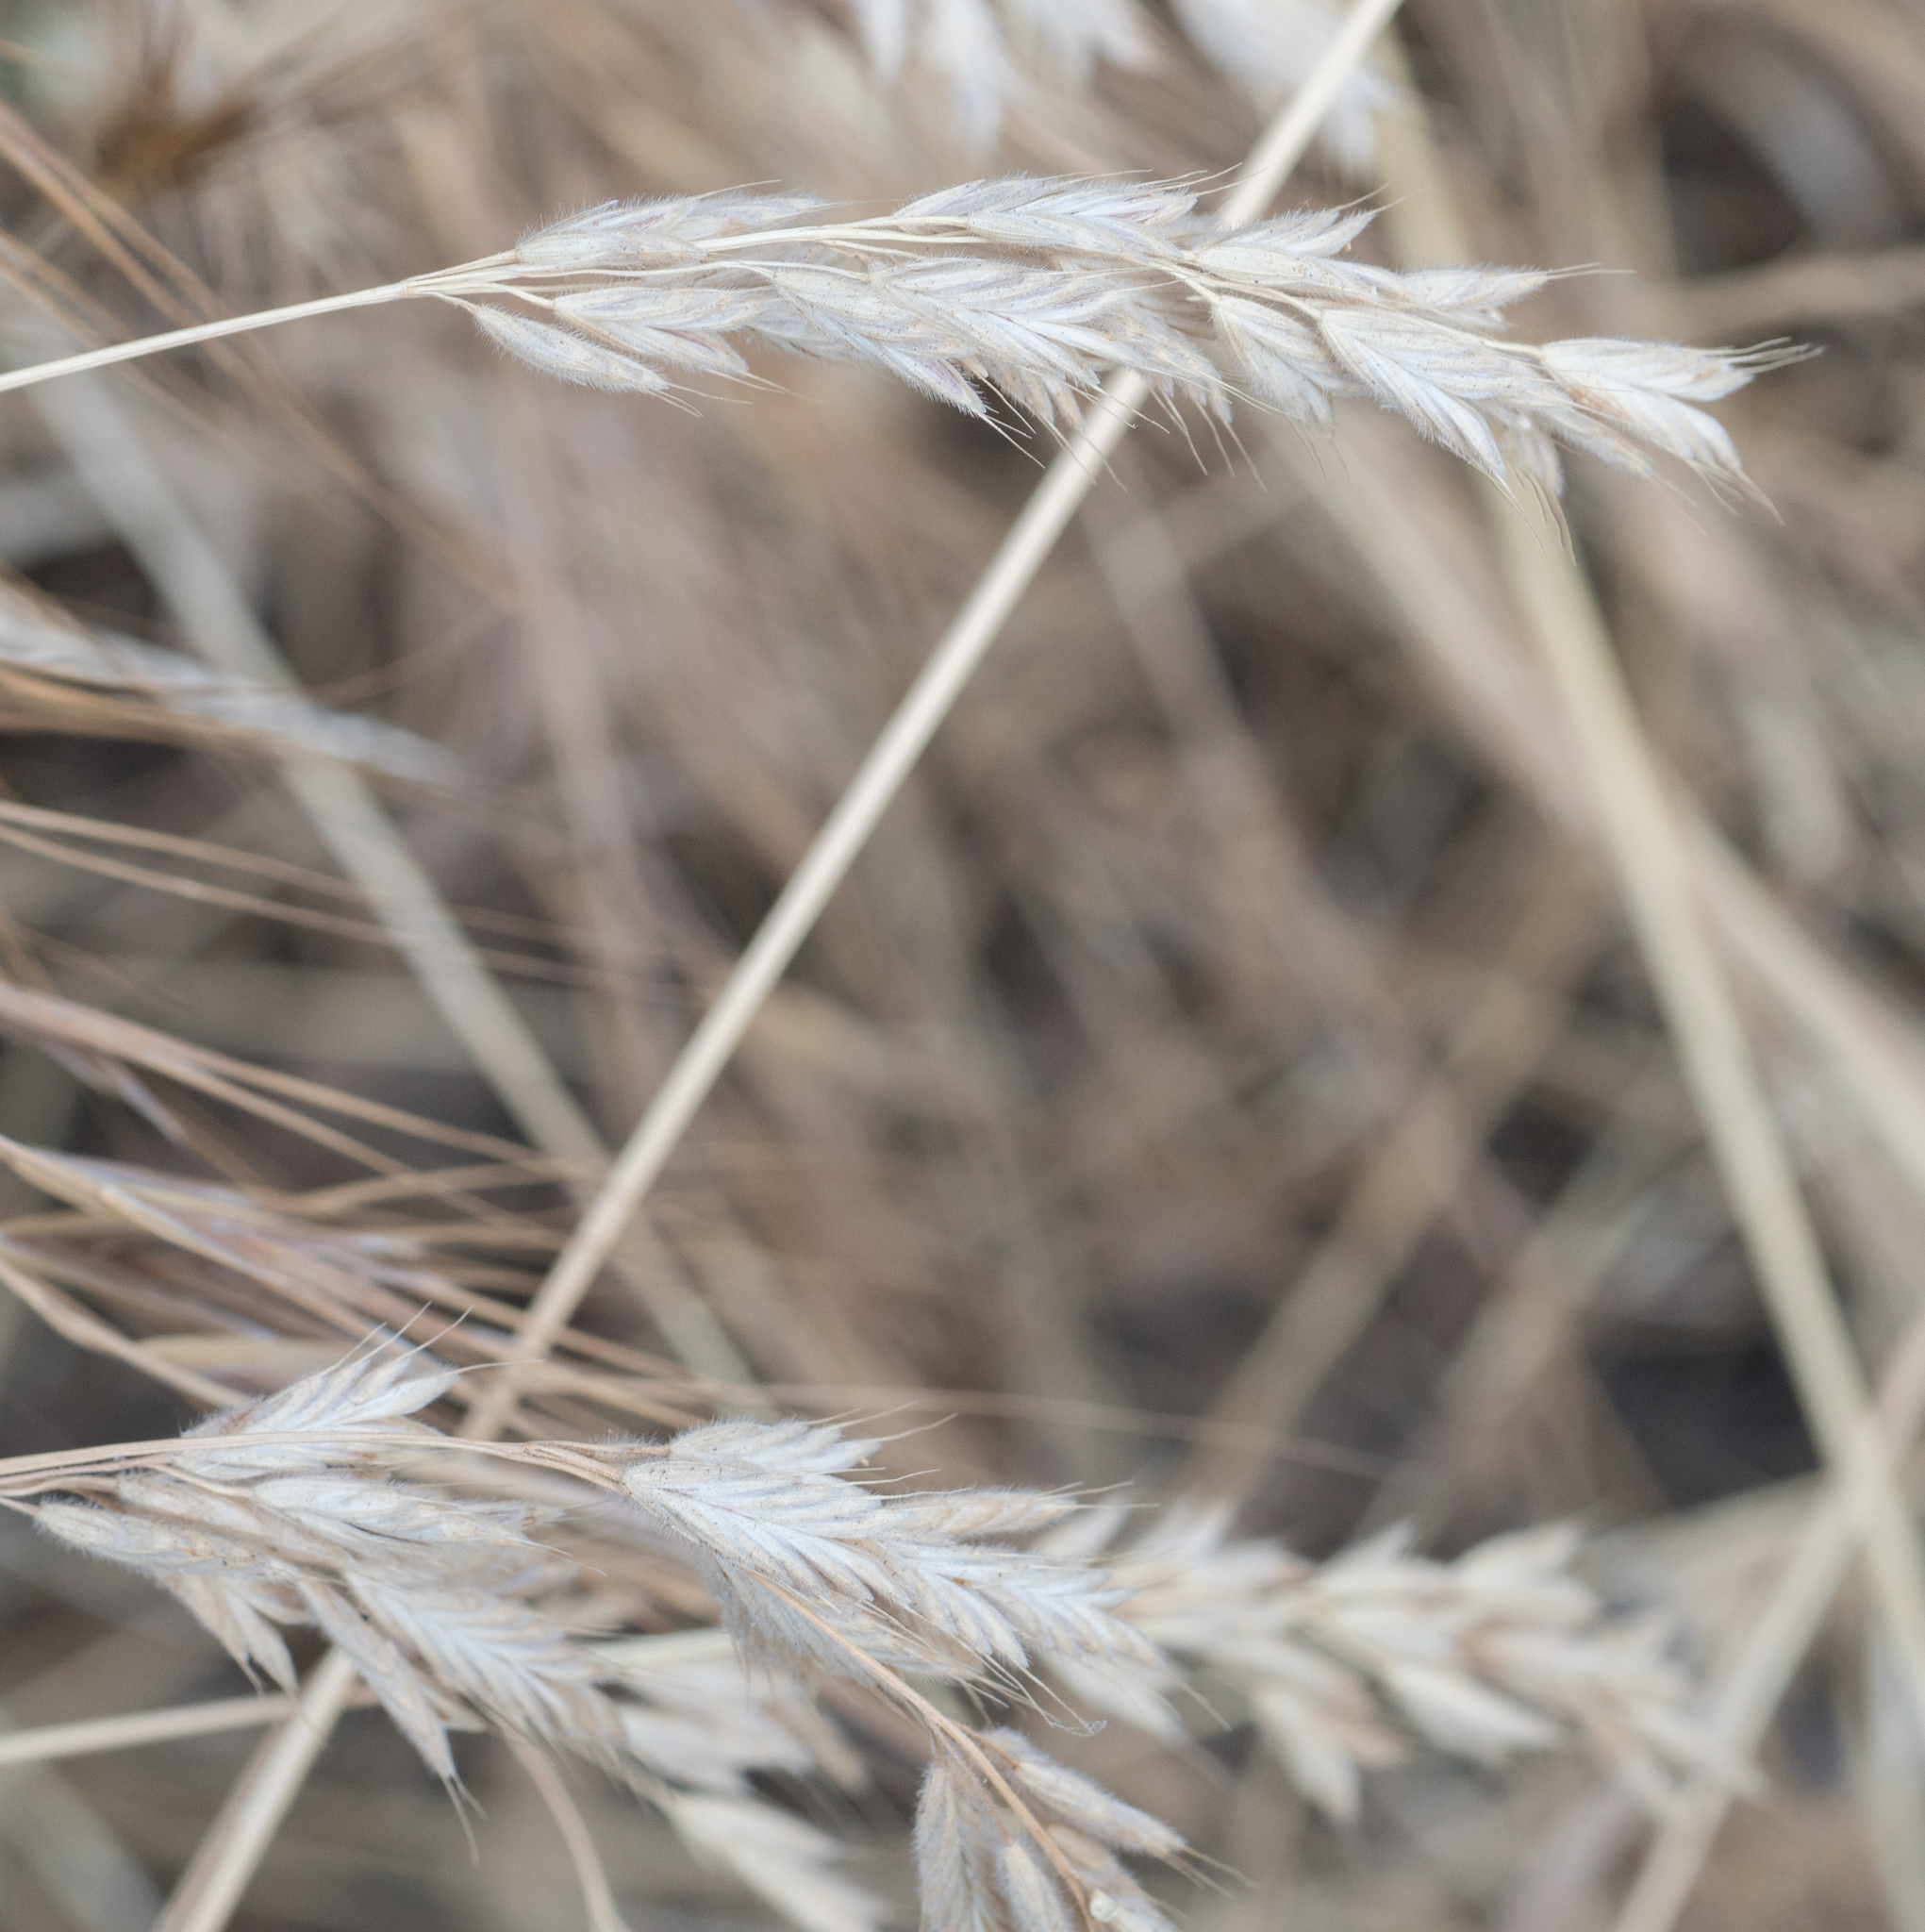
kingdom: Plantae
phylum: Tracheophyta
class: Liliopsida
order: Poales
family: Poaceae
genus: Bromus
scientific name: Bromus hordeaceus
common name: Soft brome
